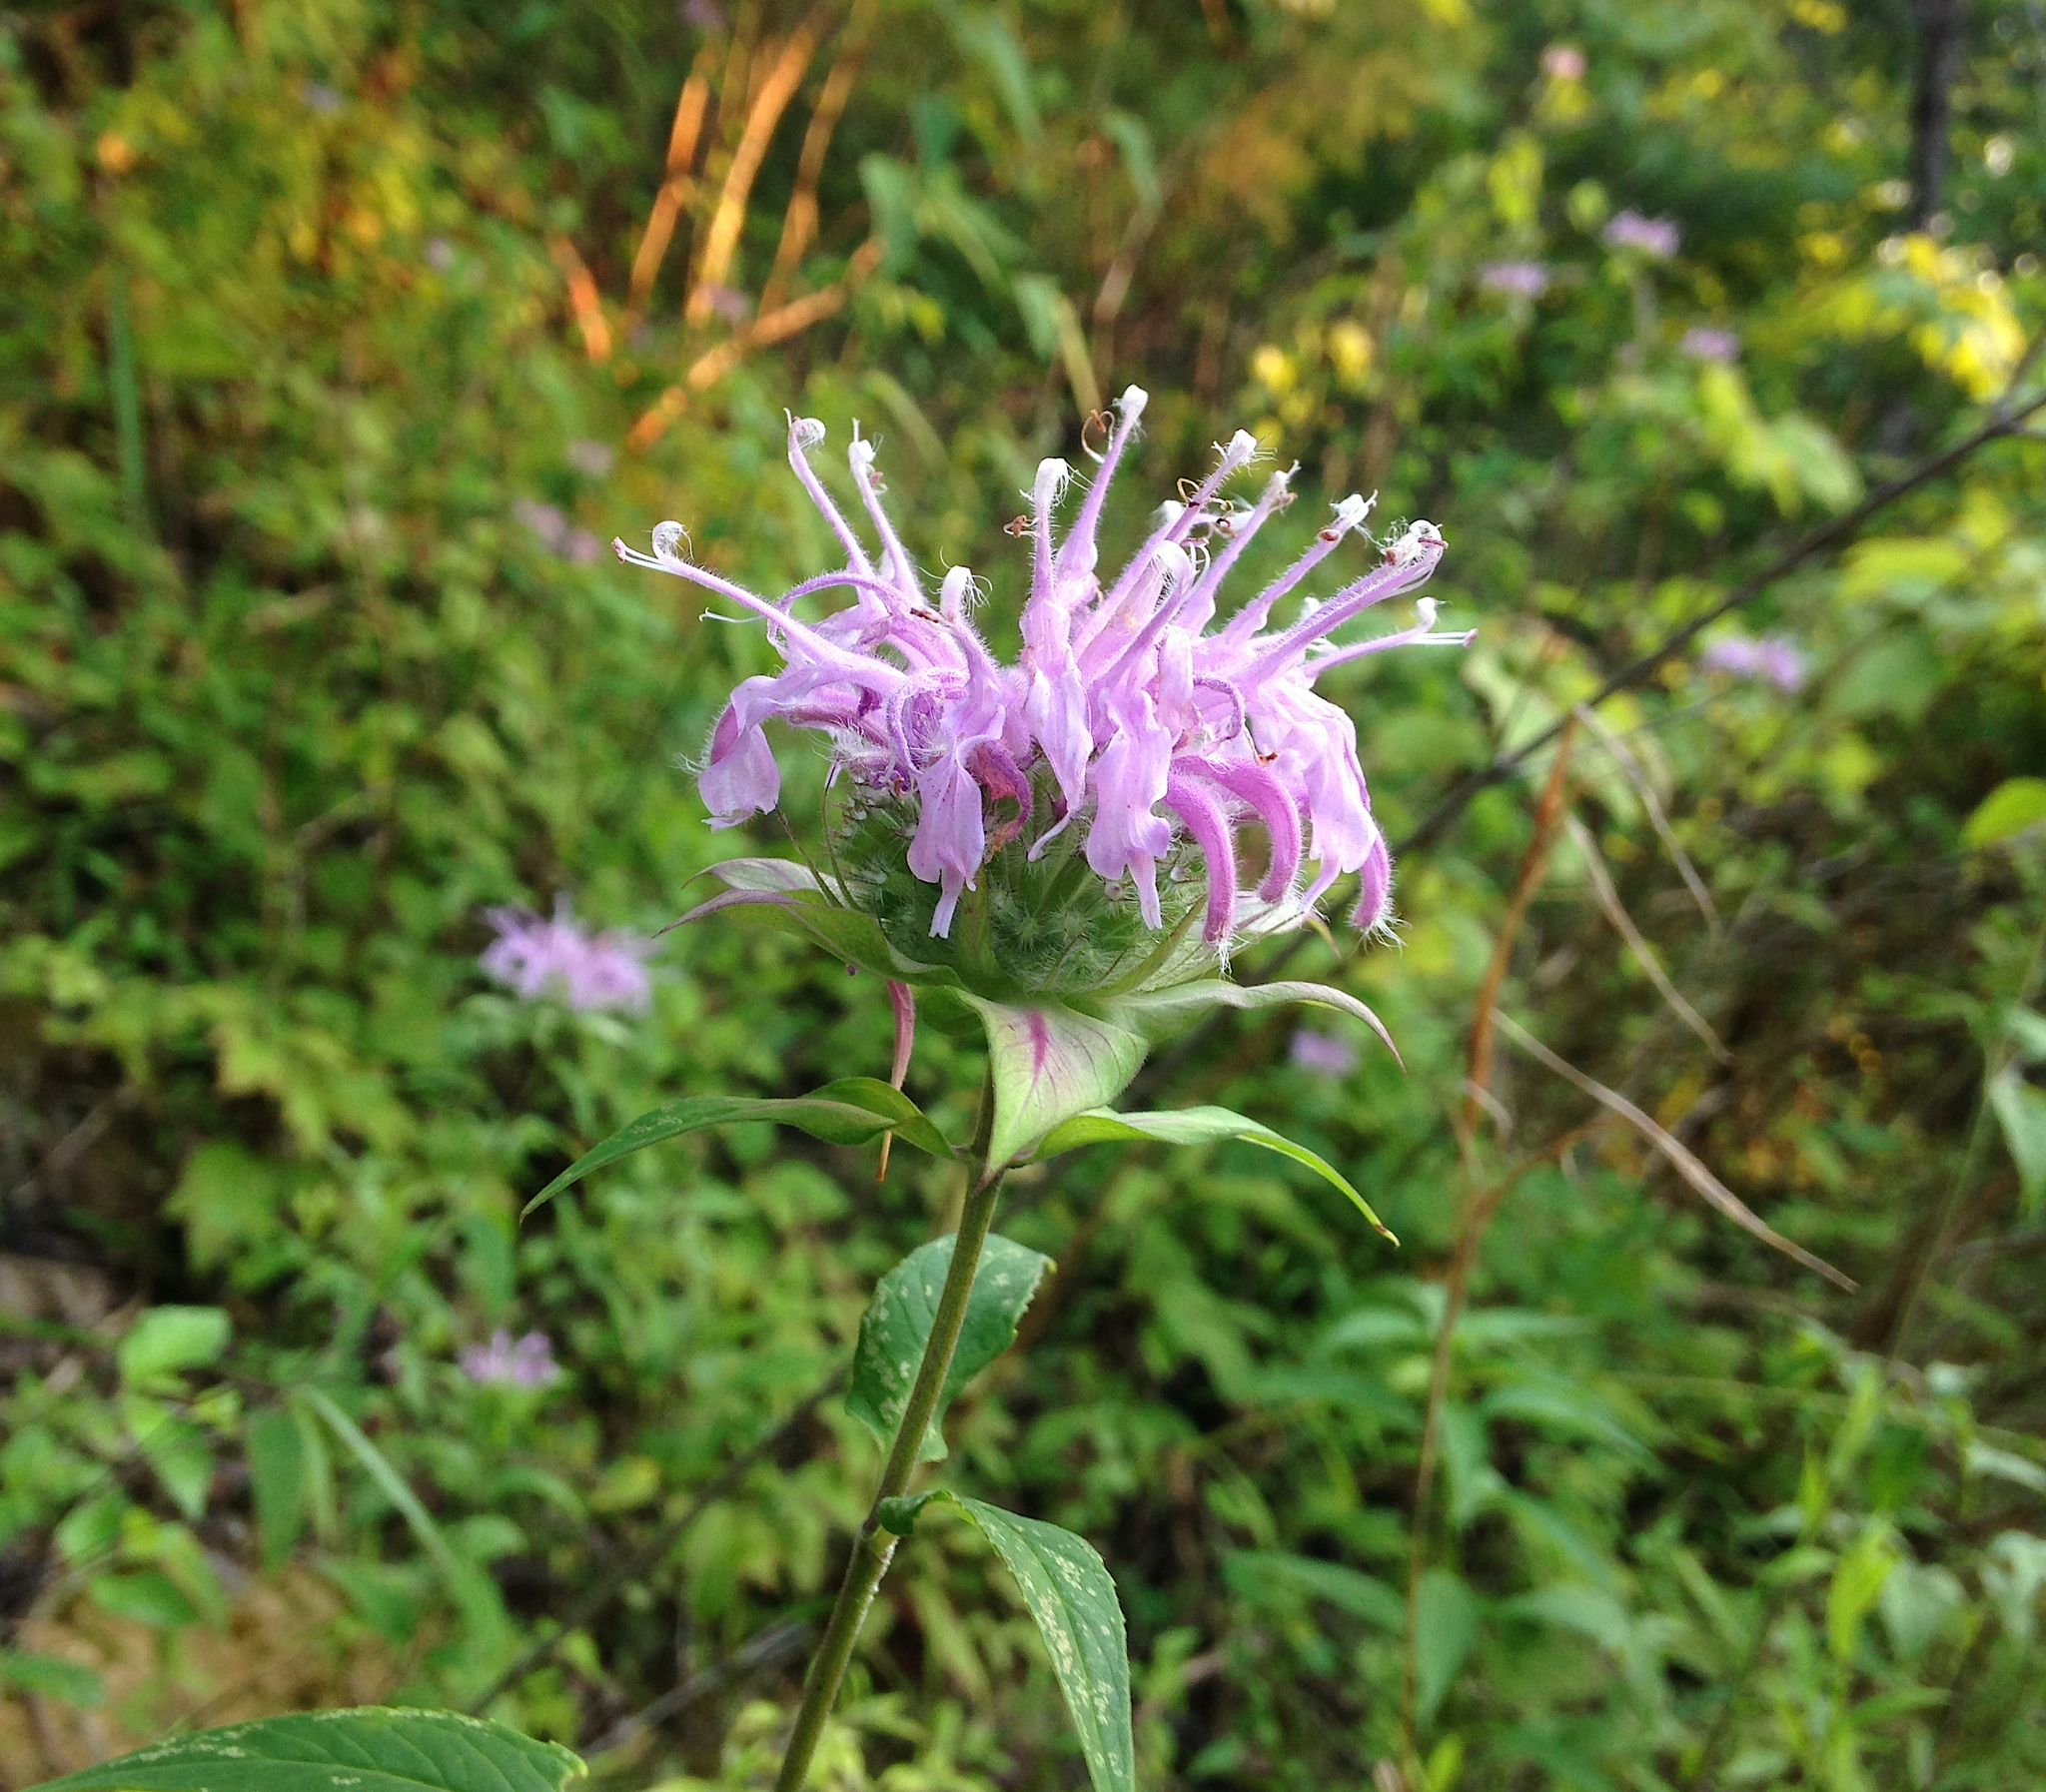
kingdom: Plantae
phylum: Tracheophyta
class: Magnoliopsida
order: Lamiales
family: Lamiaceae
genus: Monarda
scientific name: Monarda fistulosa
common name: Purple beebalm
